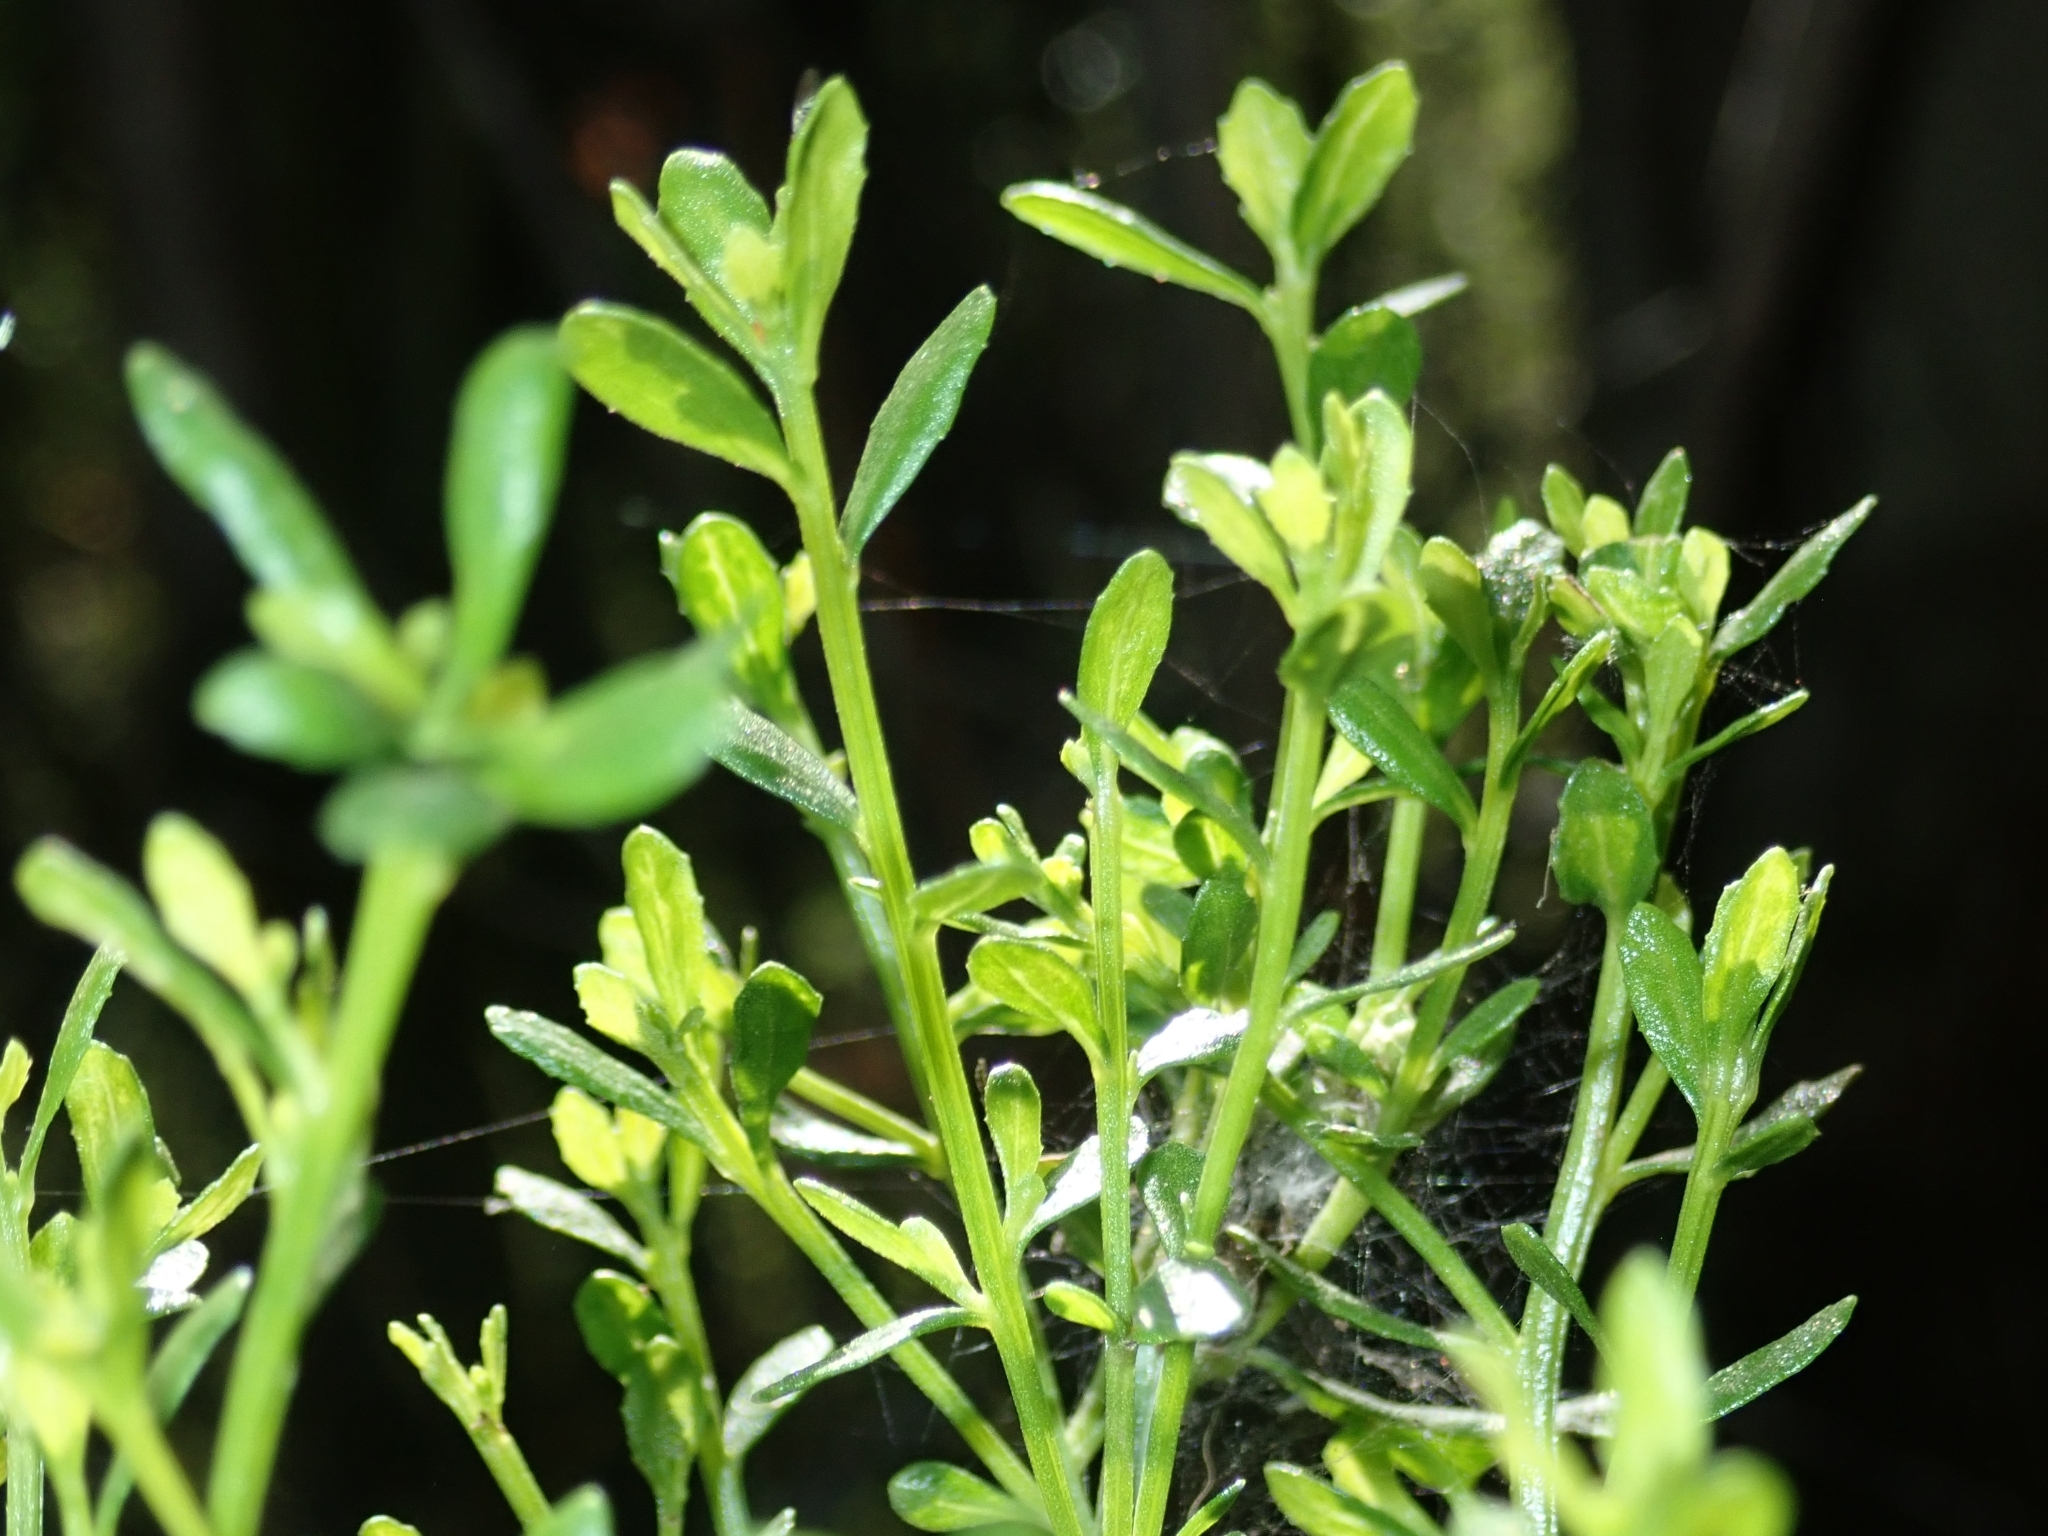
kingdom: Plantae
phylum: Tracheophyta
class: Magnoliopsida
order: Asterales
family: Asteraceae
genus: Baccharis
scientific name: Baccharis pilularis
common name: Coyotebrush
